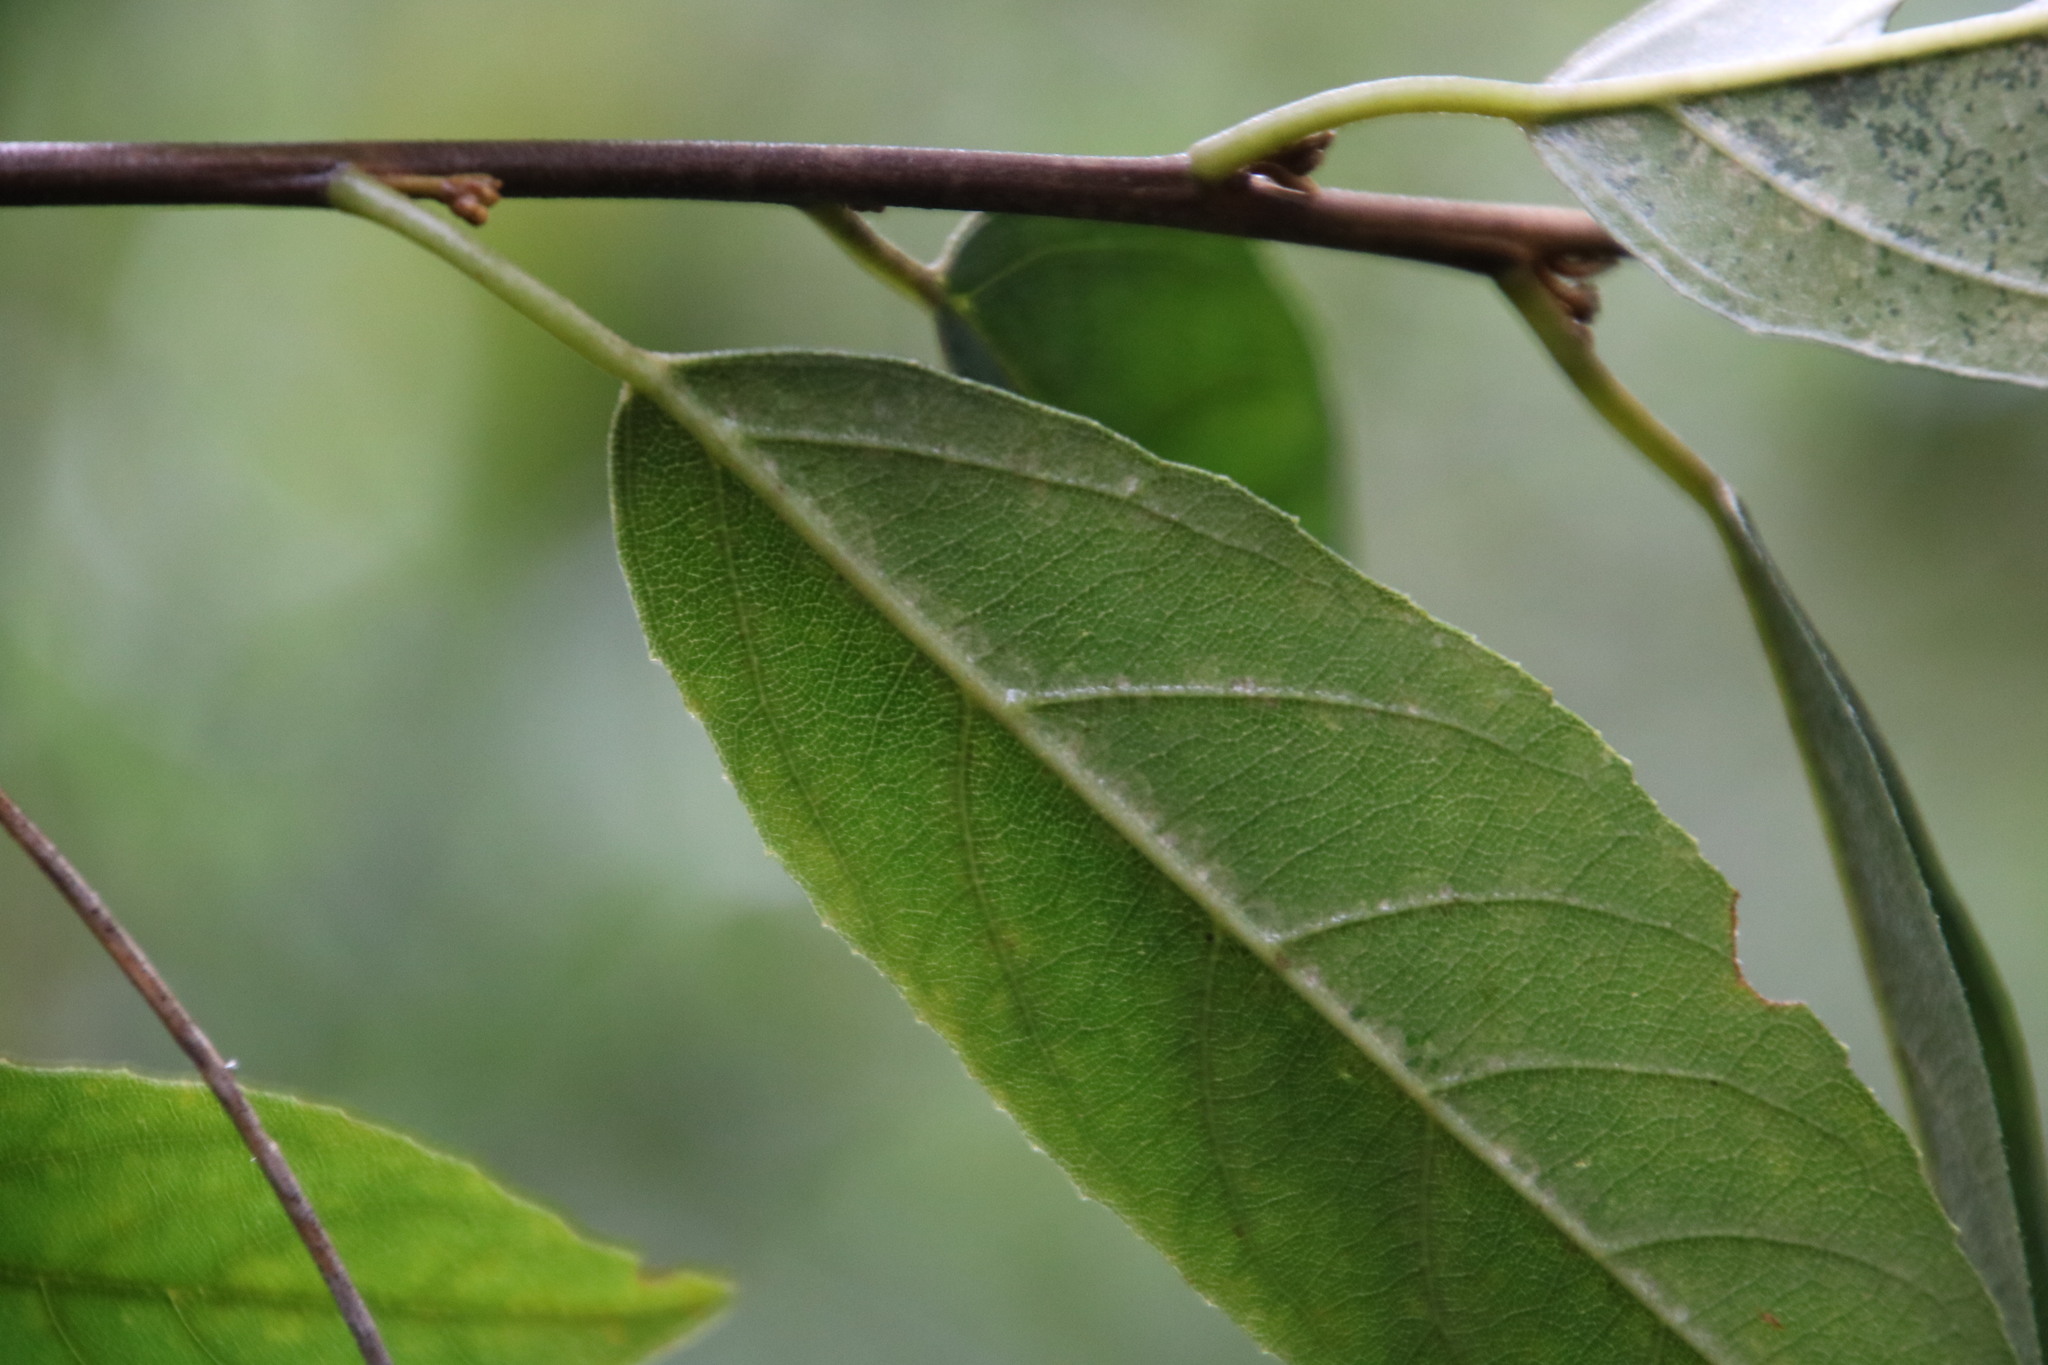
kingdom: Plantae
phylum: Tracheophyta
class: Magnoliopsida
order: Malpighiales
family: Achariaceae
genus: Kiggelaria
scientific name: Kiggelaria africana
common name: Wild peach
